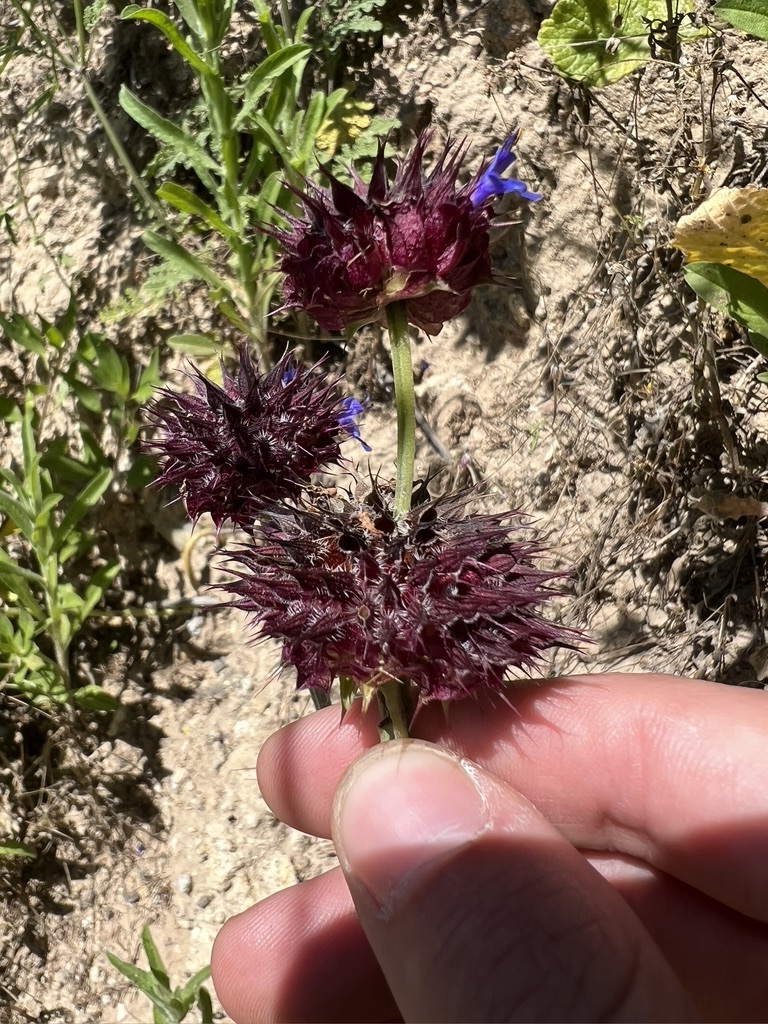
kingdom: Plantae
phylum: Tracheophyta
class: Magnoliopsida
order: Lamiales
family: Lamiaceae
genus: Salvia
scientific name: Salvia columbariae
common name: Chia
